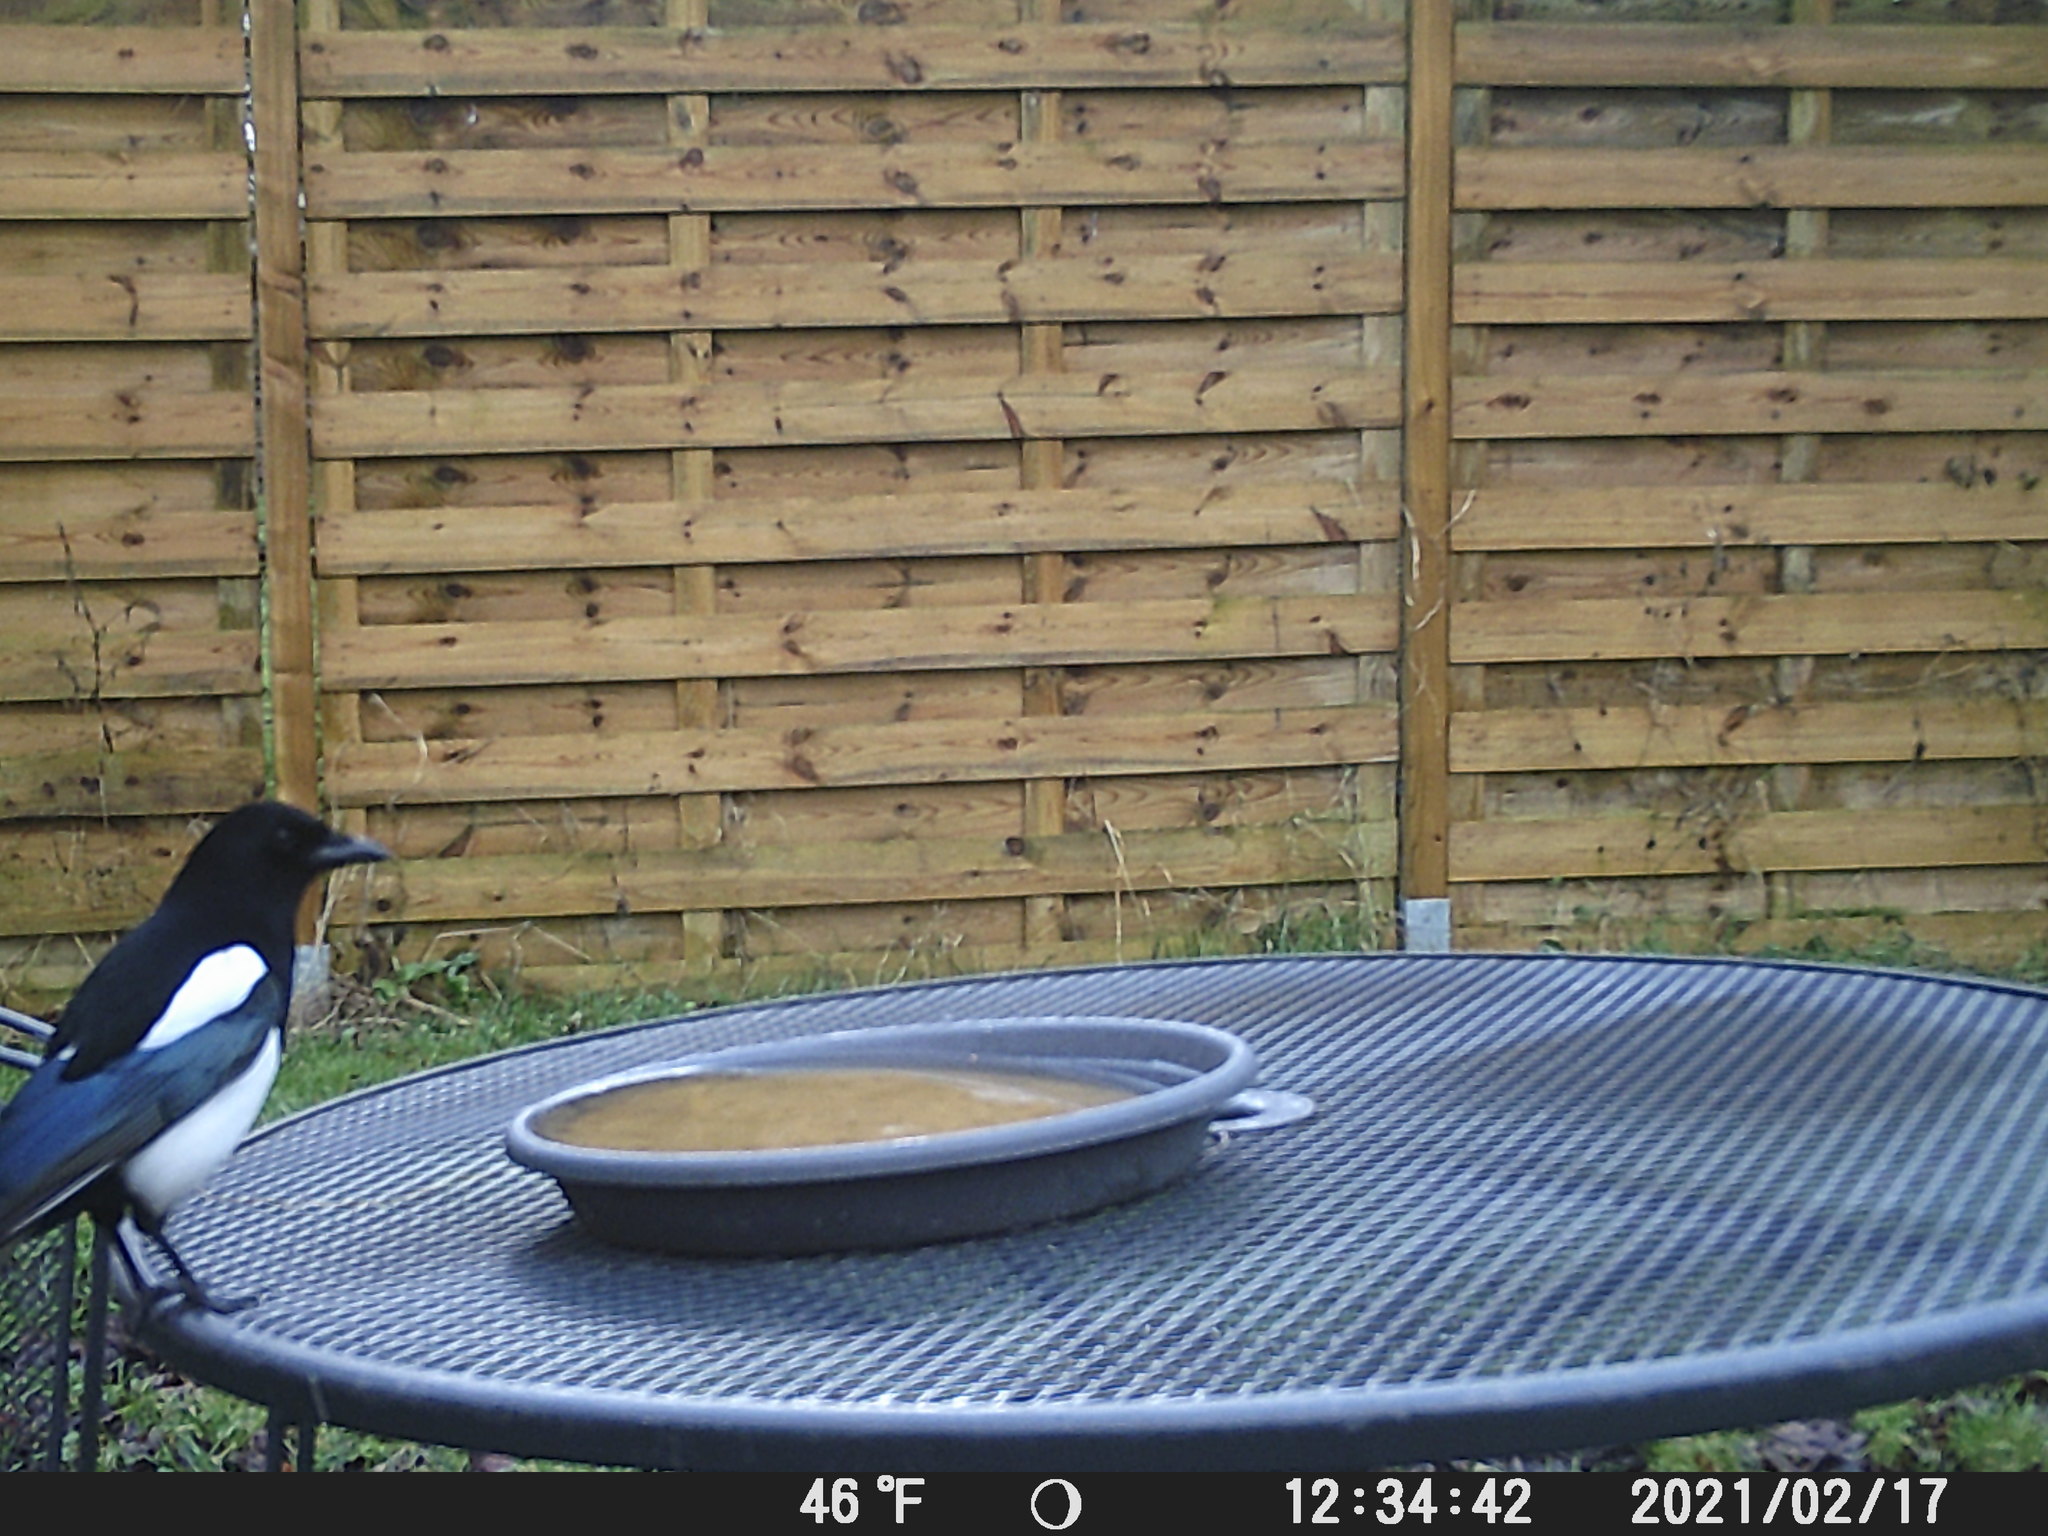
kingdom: Animalia
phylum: Chordata
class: Aves
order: Passeriformes
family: Corvidae
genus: Pica
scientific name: Pica pica
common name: Eurasian magpie
